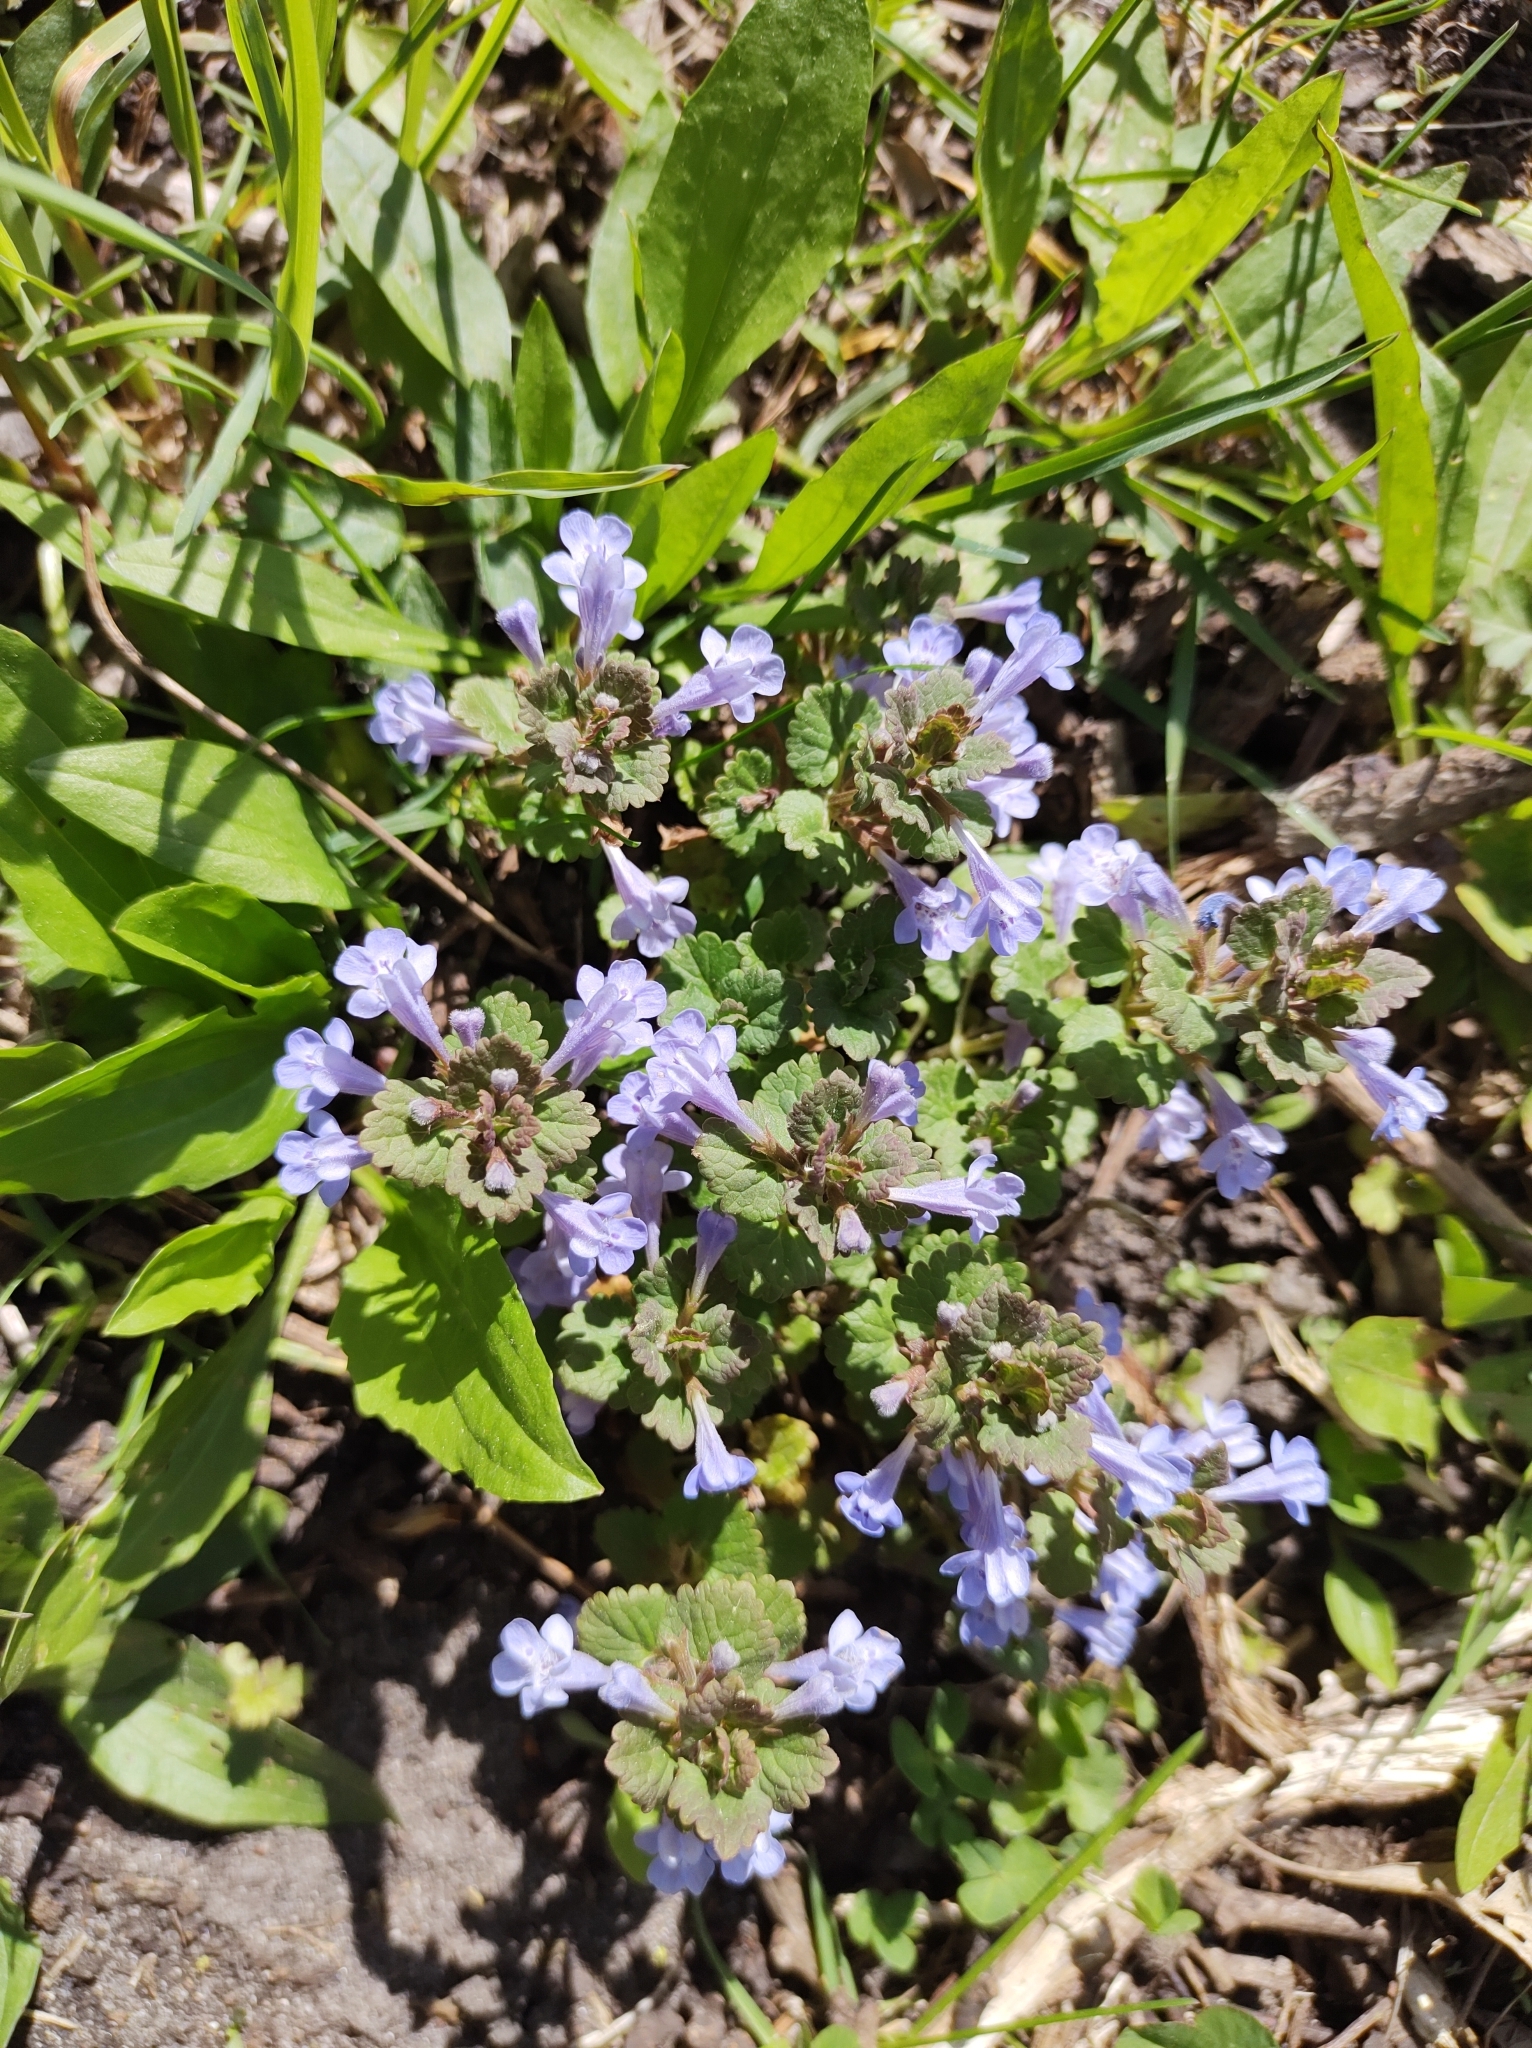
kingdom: Plantae
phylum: Tracheophyta
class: Magnoliopsida
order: Lamiales
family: Lamiaceae
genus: Glechoma
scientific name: Glechoma hederacea
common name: Ground ivy
